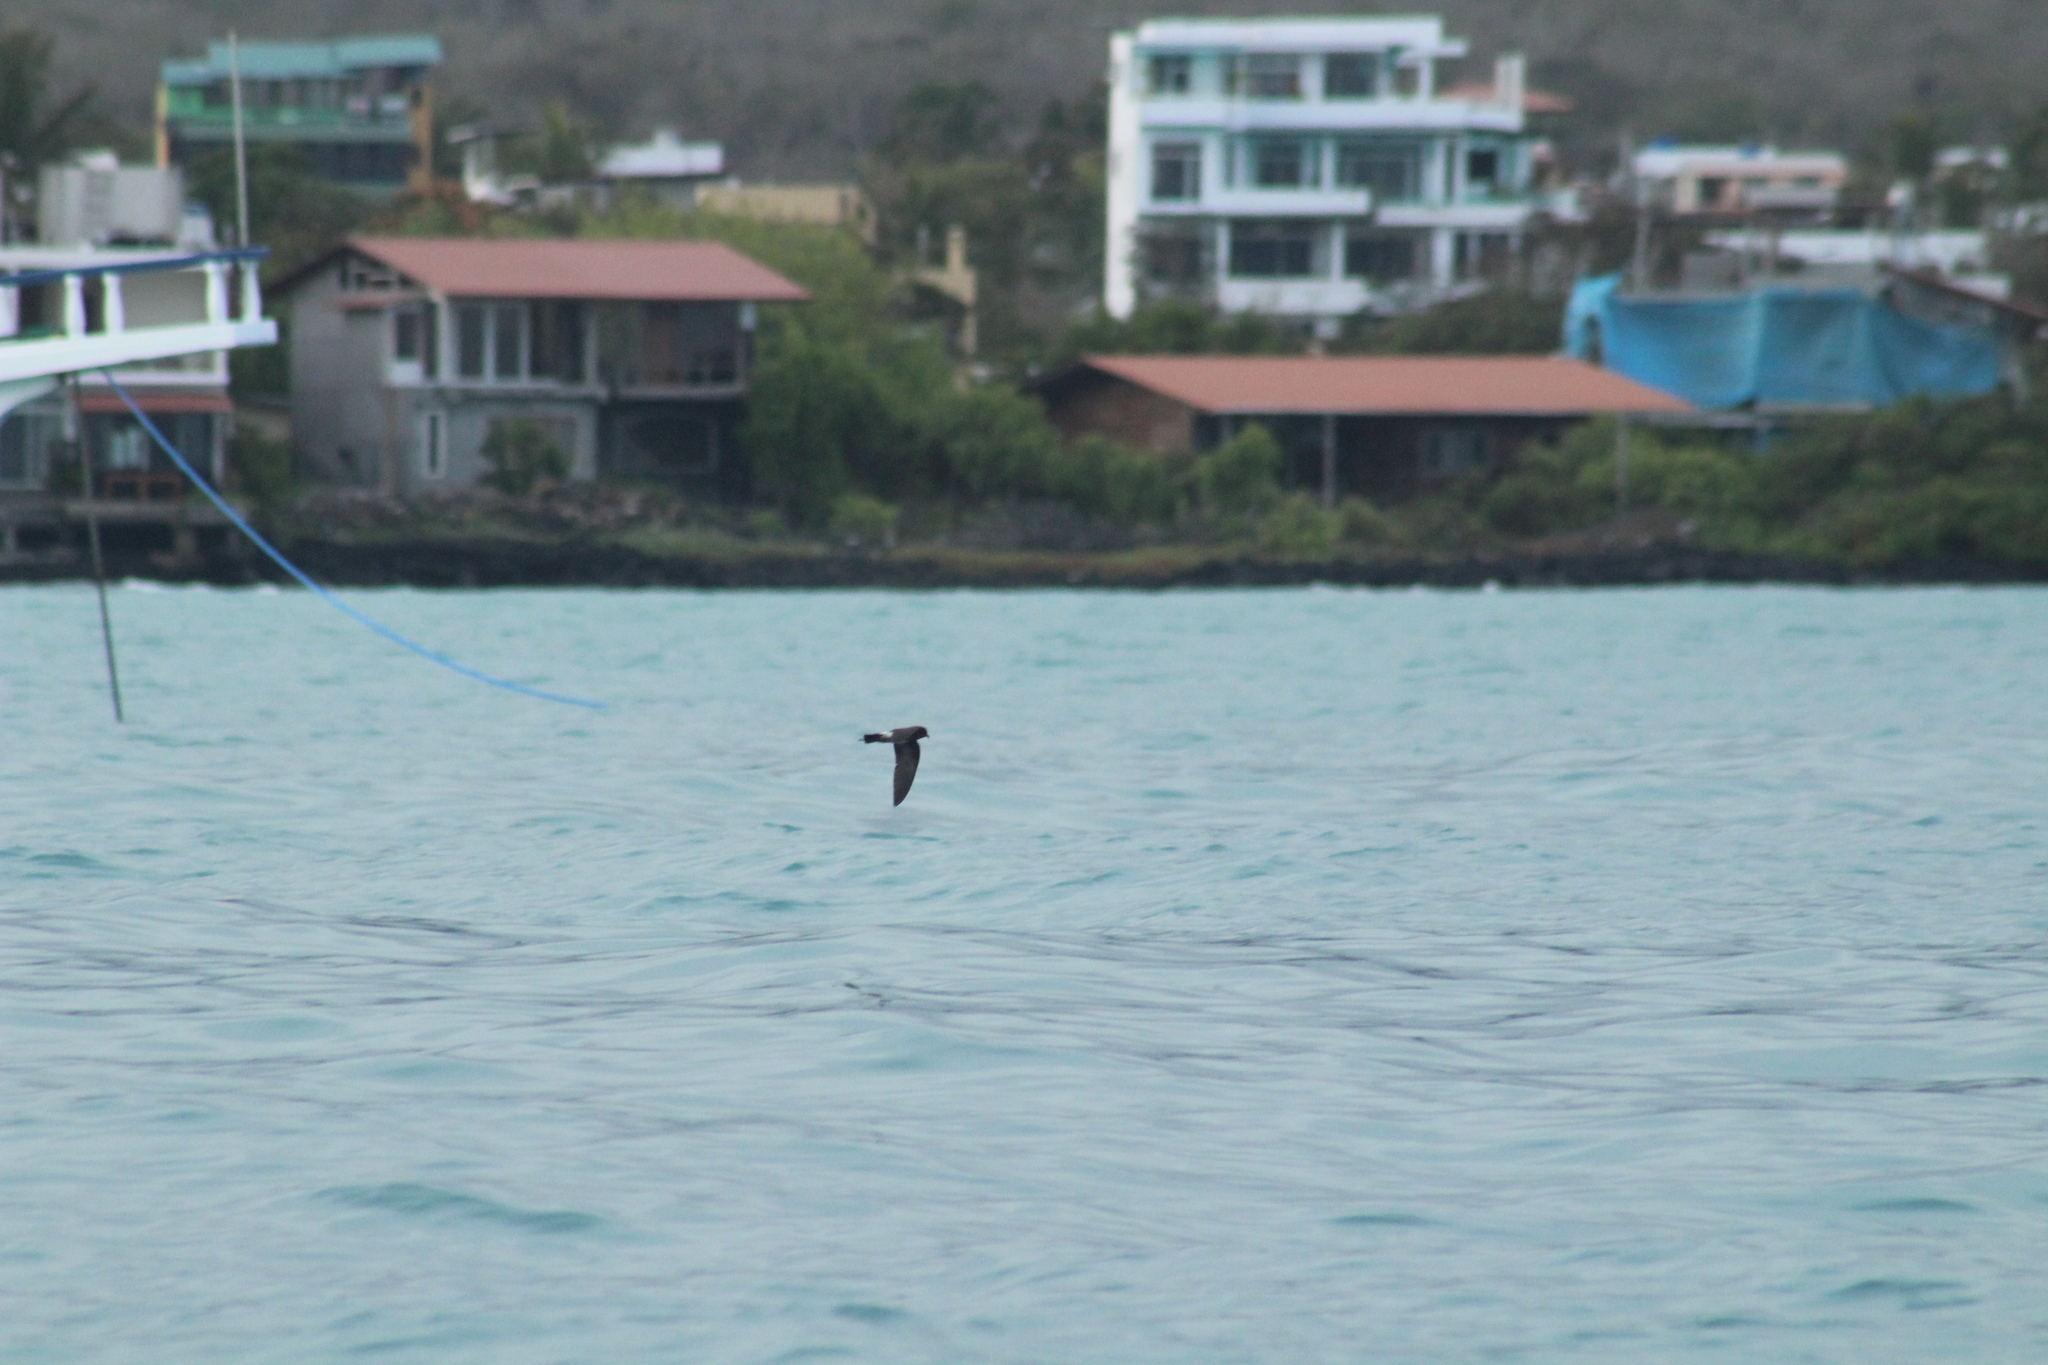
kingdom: Animalia
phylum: Chordata
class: Aves
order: Procellariiformes
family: Hydrobatidae
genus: Oceanites
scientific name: Oceanites gracilis
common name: Elliot's storm-petrel
